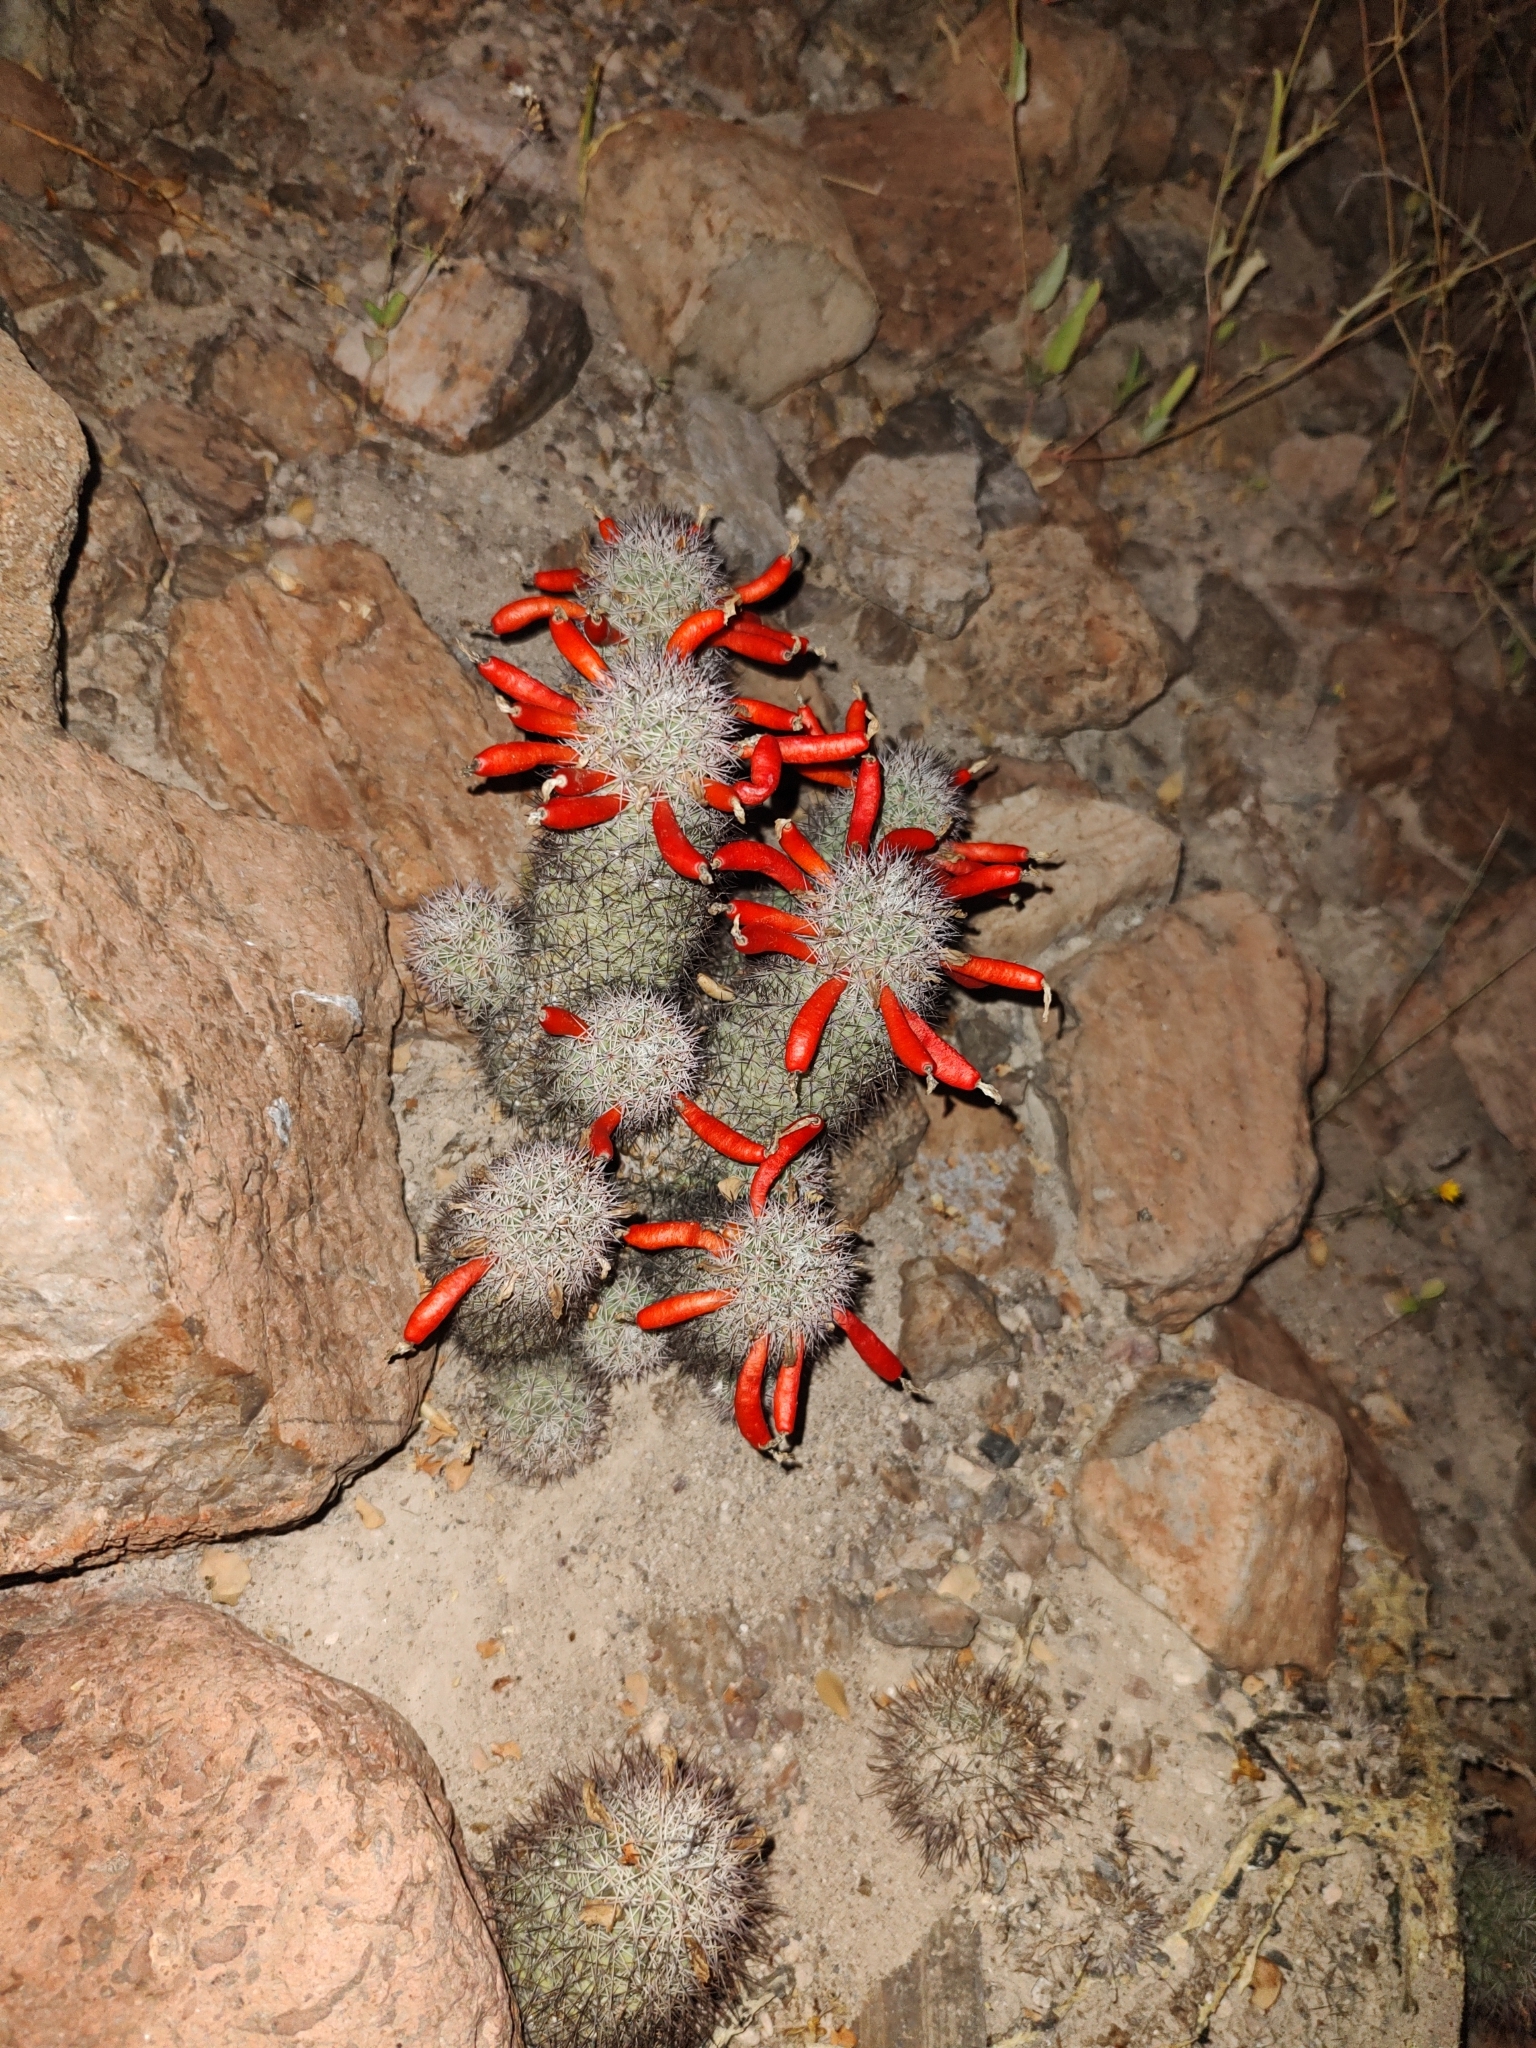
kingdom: Plantae
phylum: Tracheophyta
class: Magnoliopsida
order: Caryophyllales
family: Cactaceae
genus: Cochemiea
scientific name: Cochemiea fraileana
